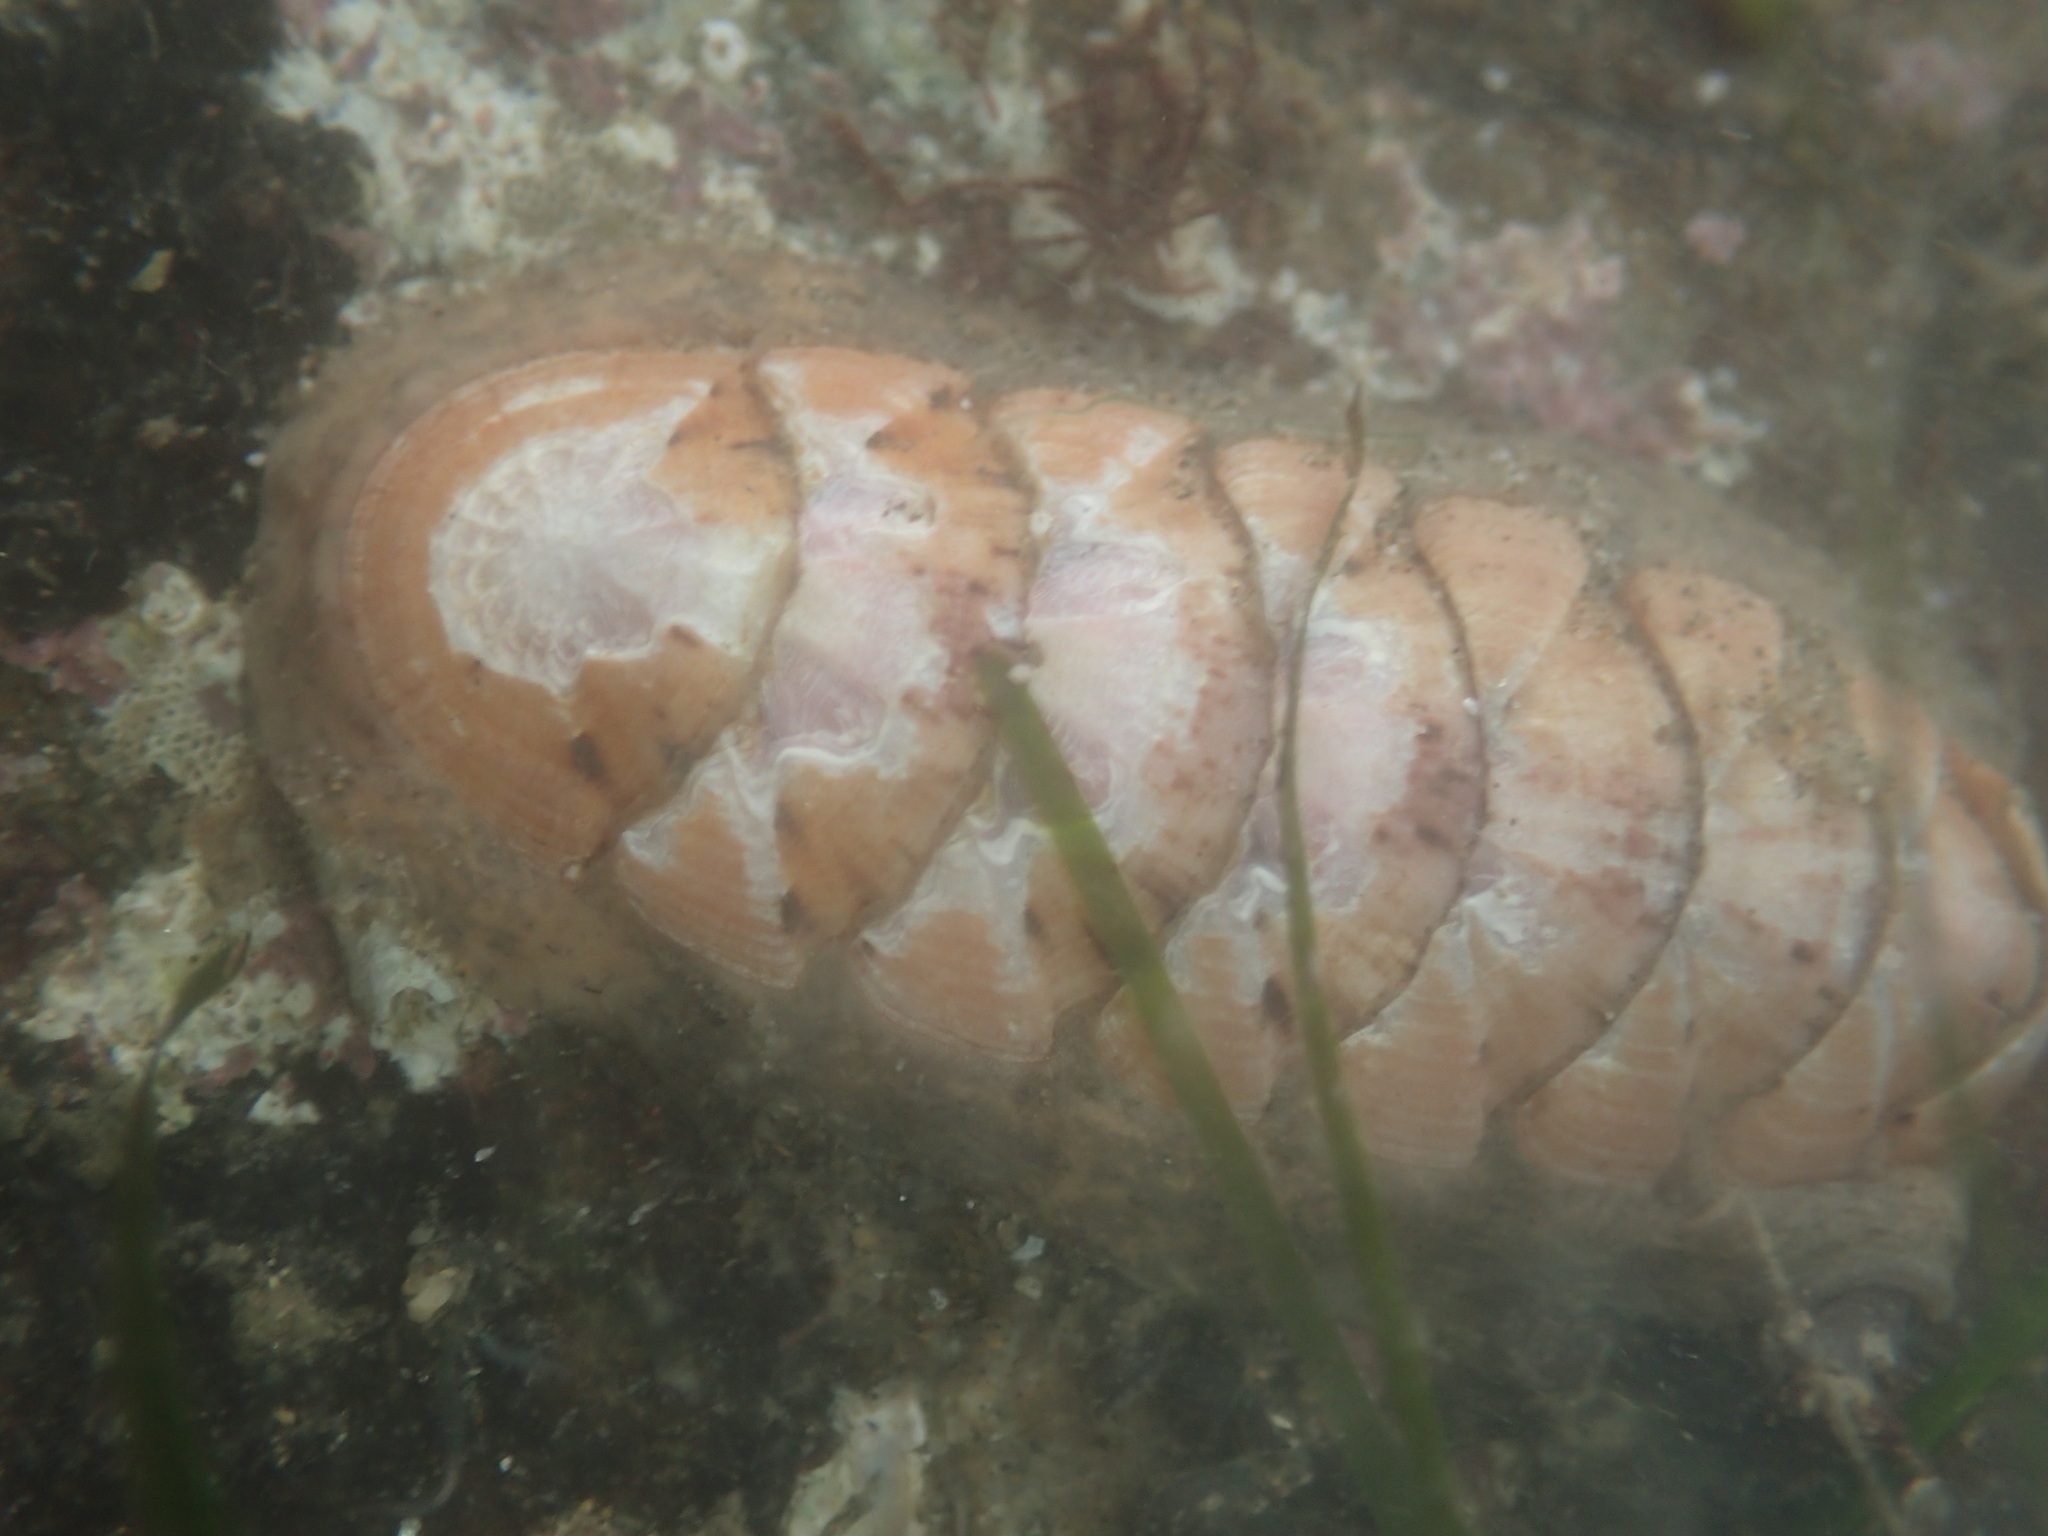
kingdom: Animalia
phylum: Mollusca
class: Polyplacophora
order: Chitonida
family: Ischnochitonidae
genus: Stenoplax
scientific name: Stenoplax heathiana
